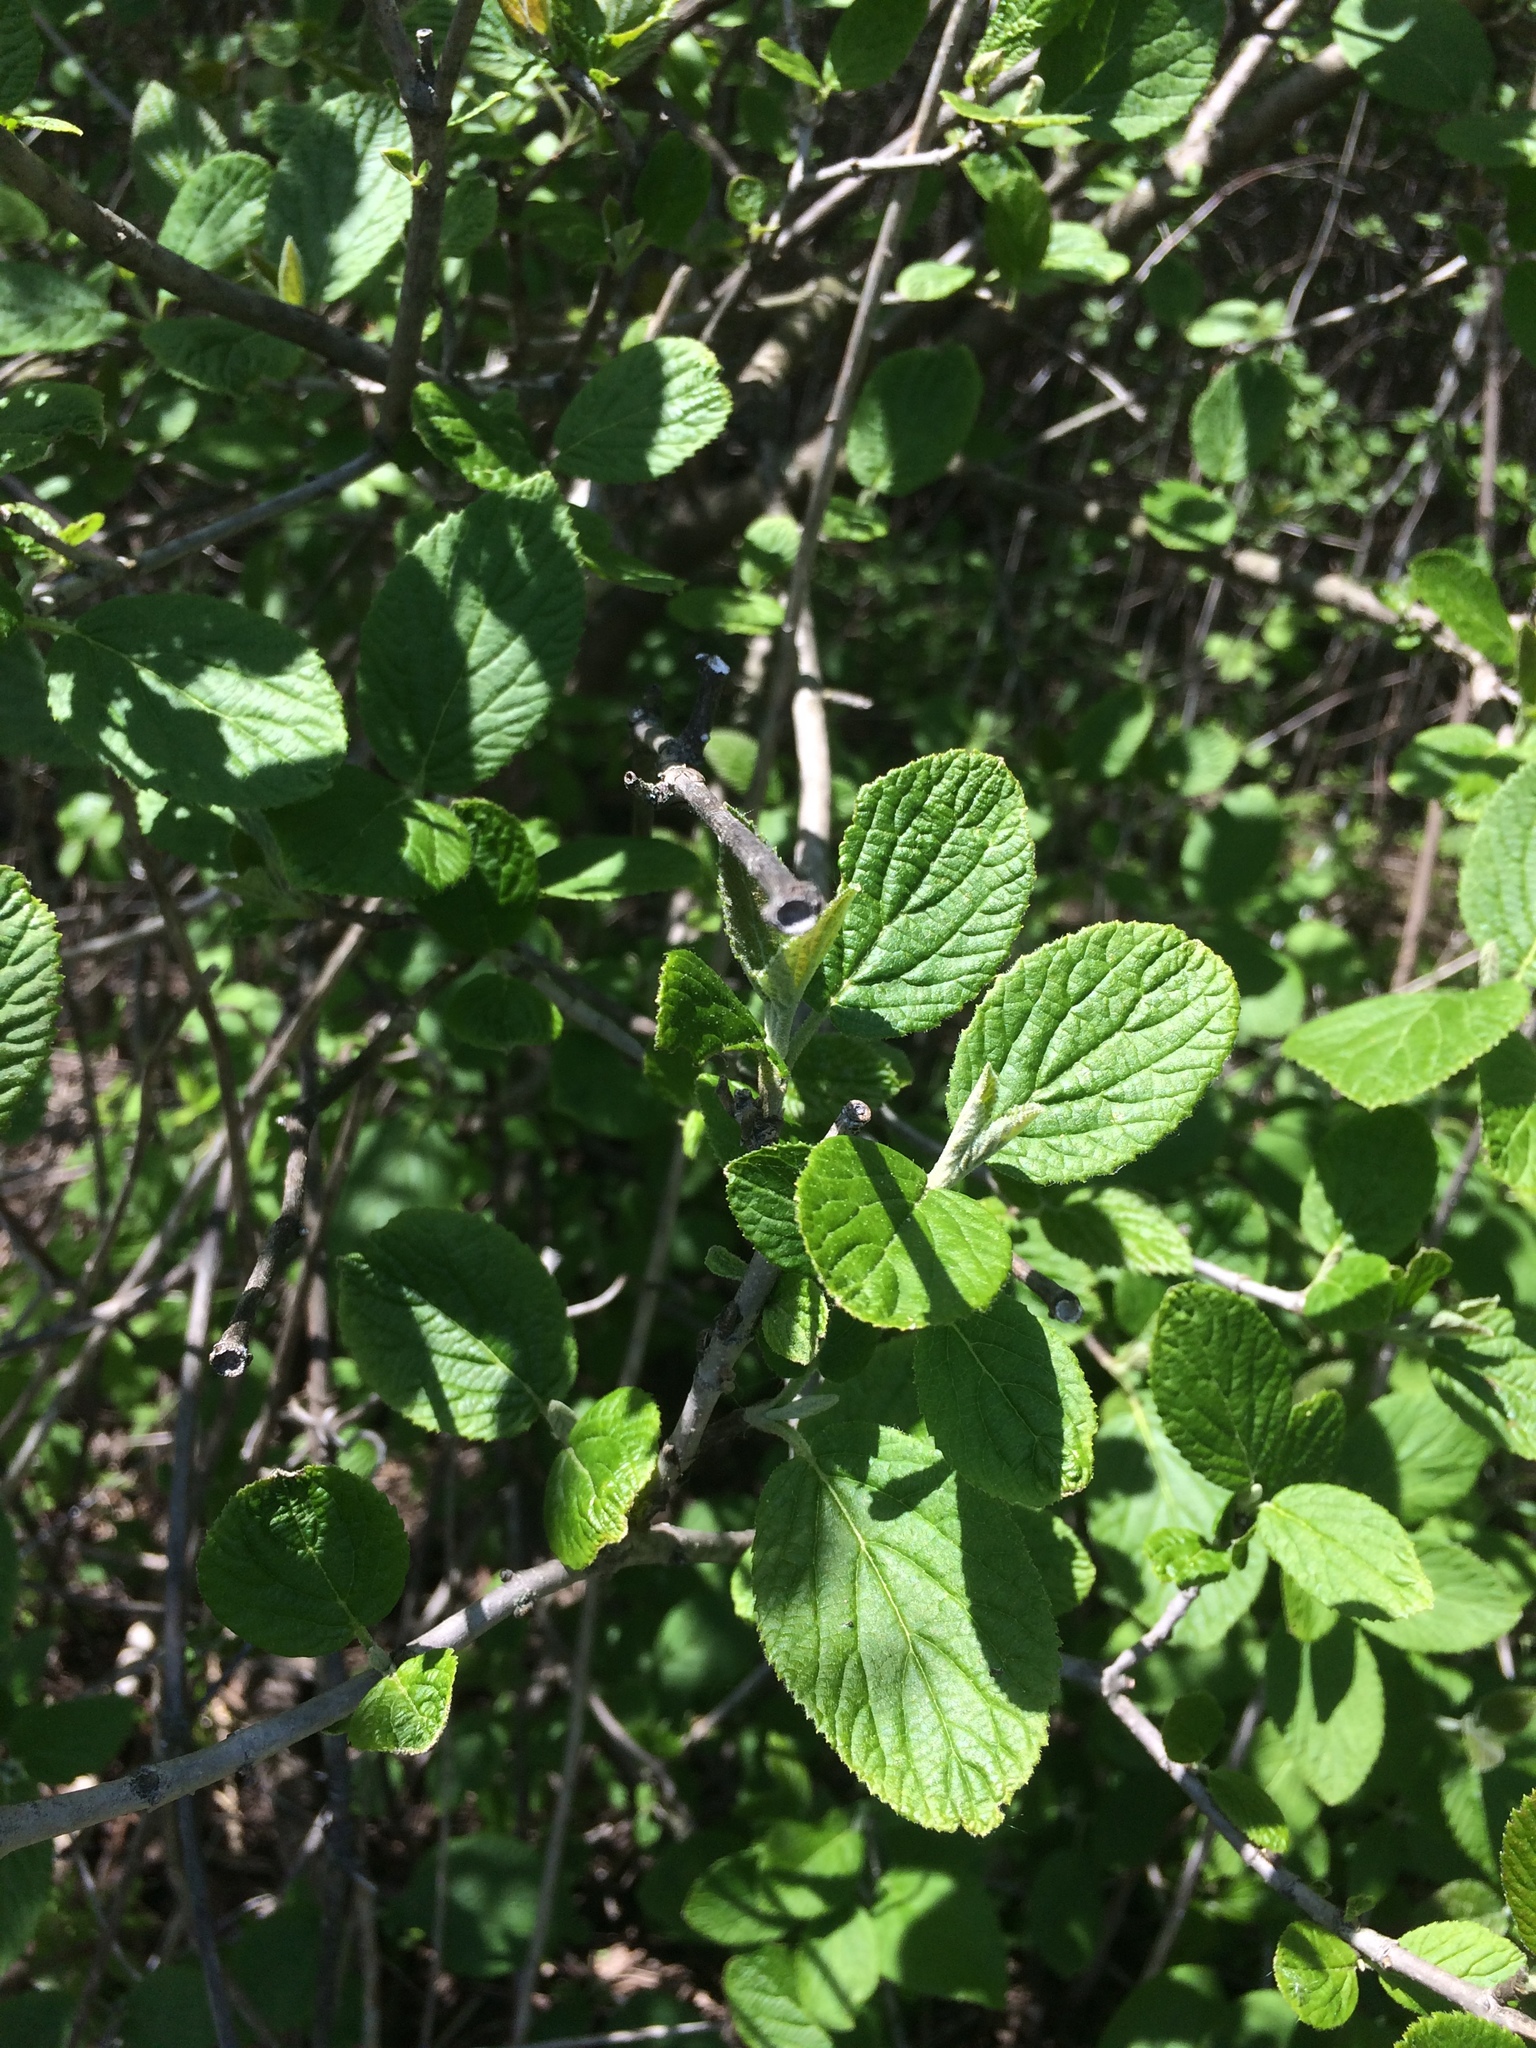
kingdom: Plantae
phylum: Tracheophyta
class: Magnoliopsida
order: Dipsacales
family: Viburnaceae
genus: Viburnum
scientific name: Viburnum lantana
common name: Wayfaring tree
